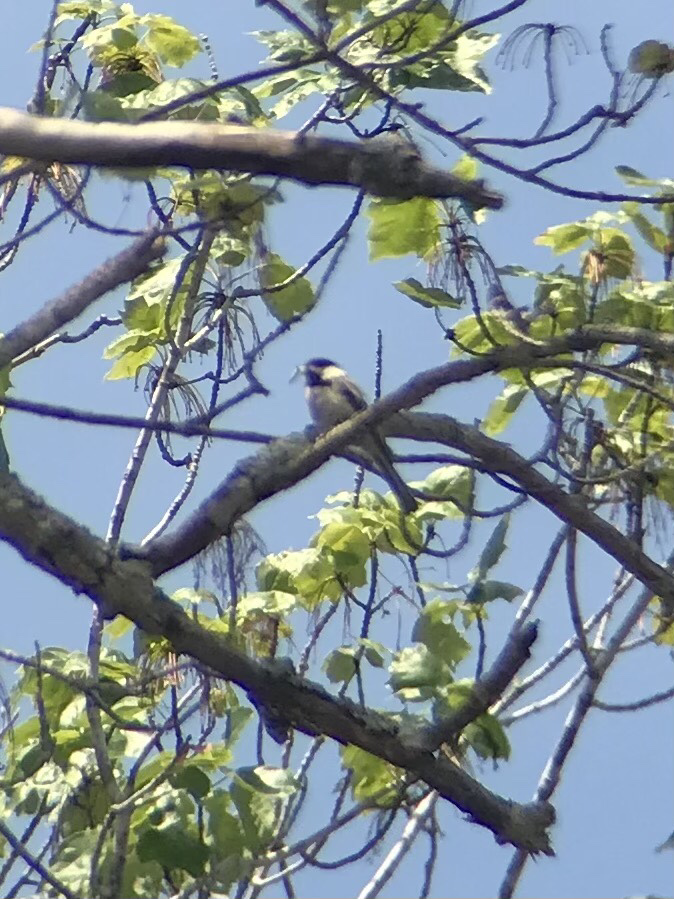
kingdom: Animalia
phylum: Chordata
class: Aves
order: Passeriformes
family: Paridae
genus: Poecile
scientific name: Poecile atricapillus
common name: Black-capped chickadee
